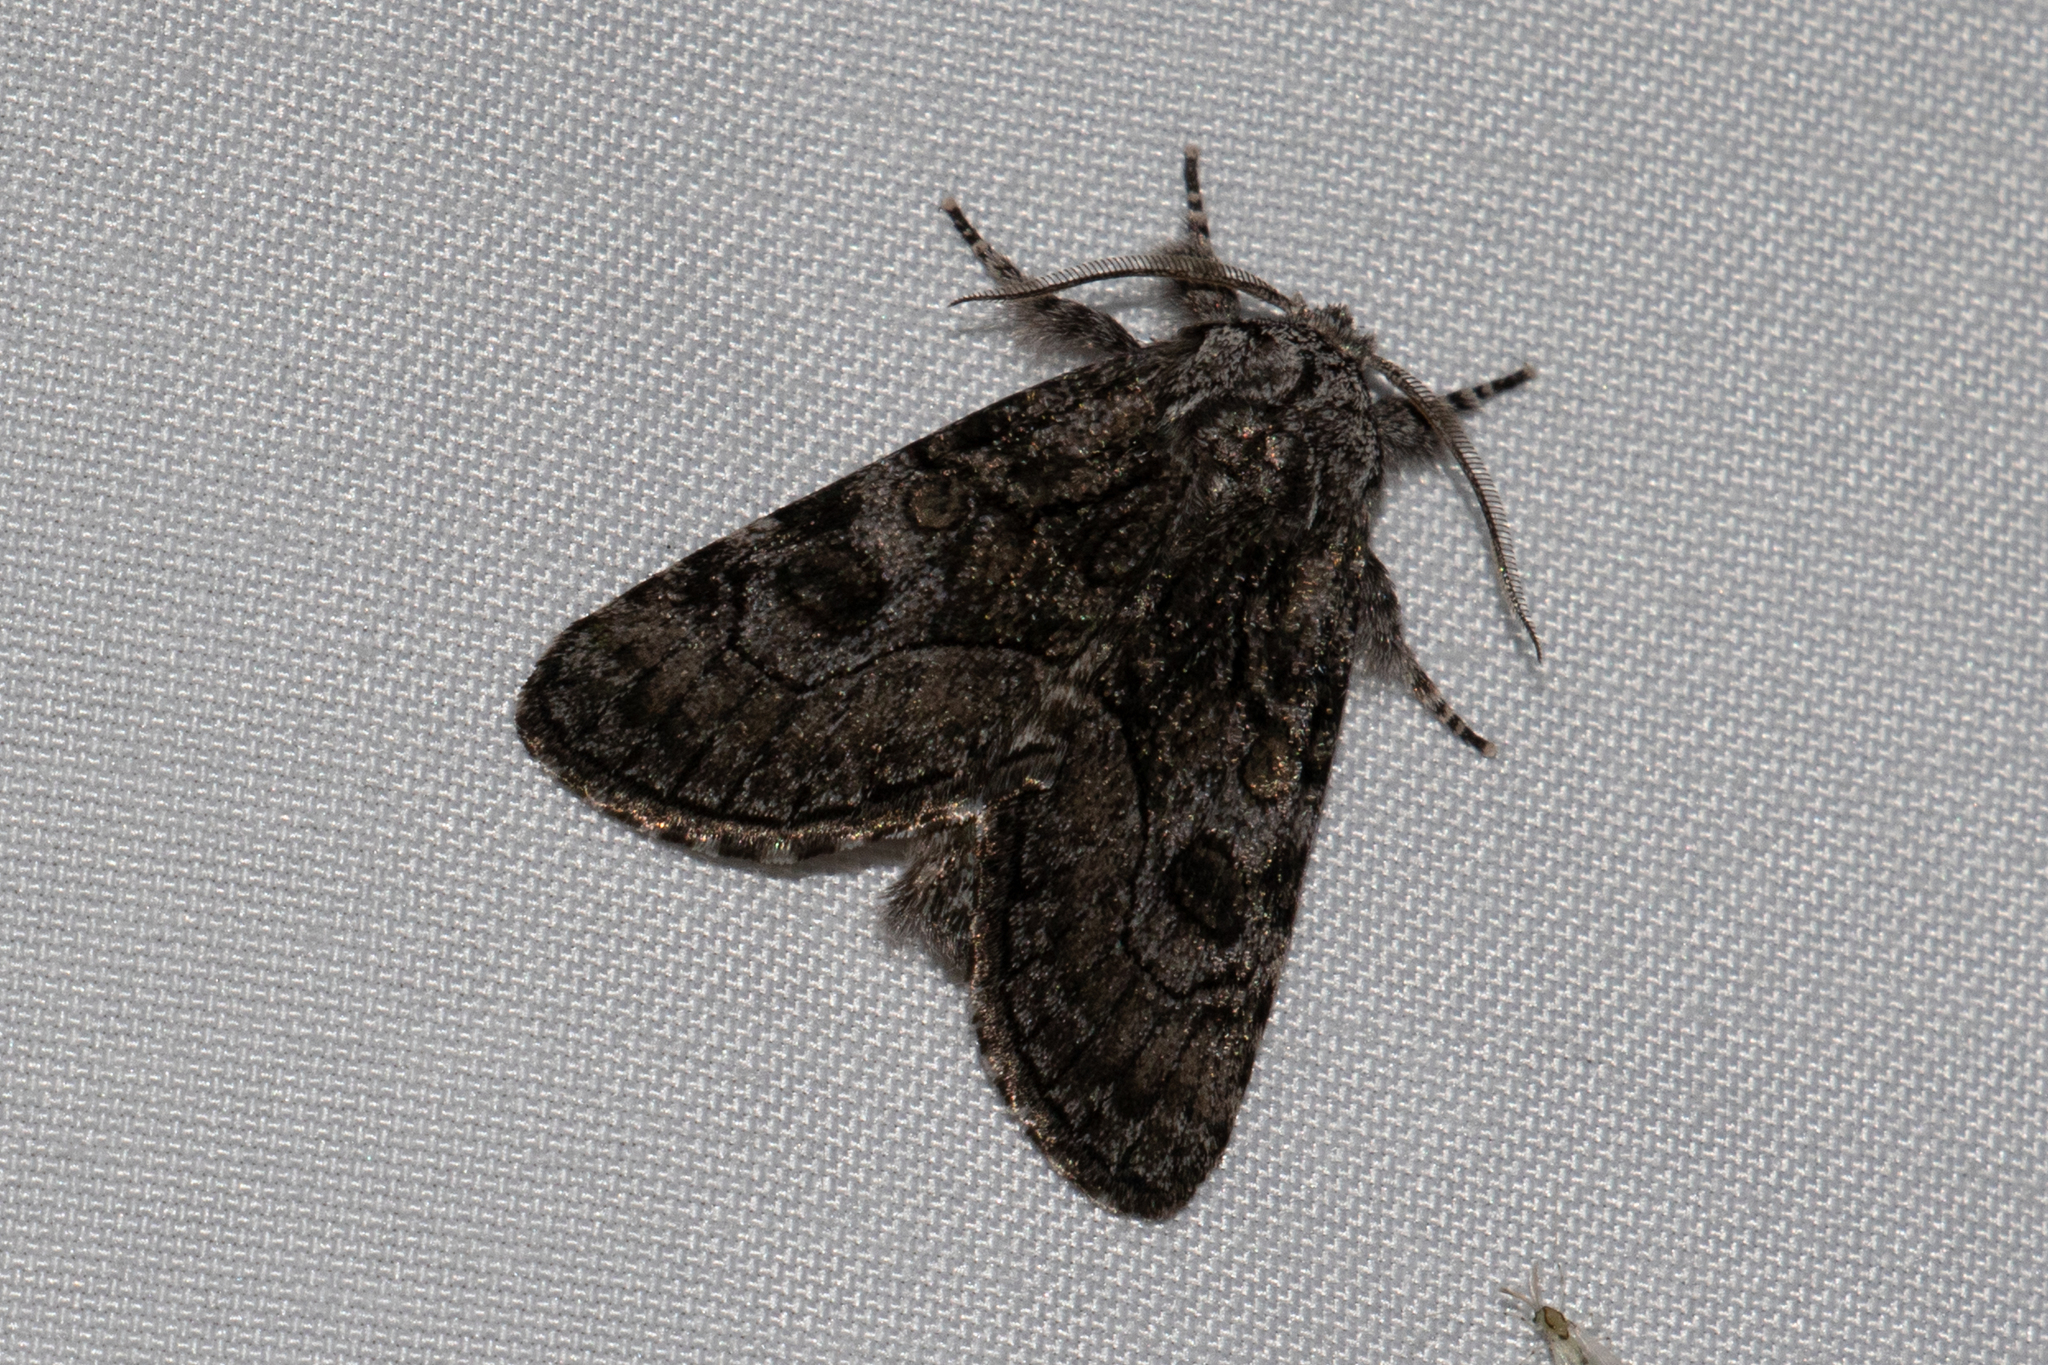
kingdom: Animalia
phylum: Arthropoda
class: Insecta
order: Lepidoptera
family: Noctuidae
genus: Raphia
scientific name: Raphia frater
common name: Brother
